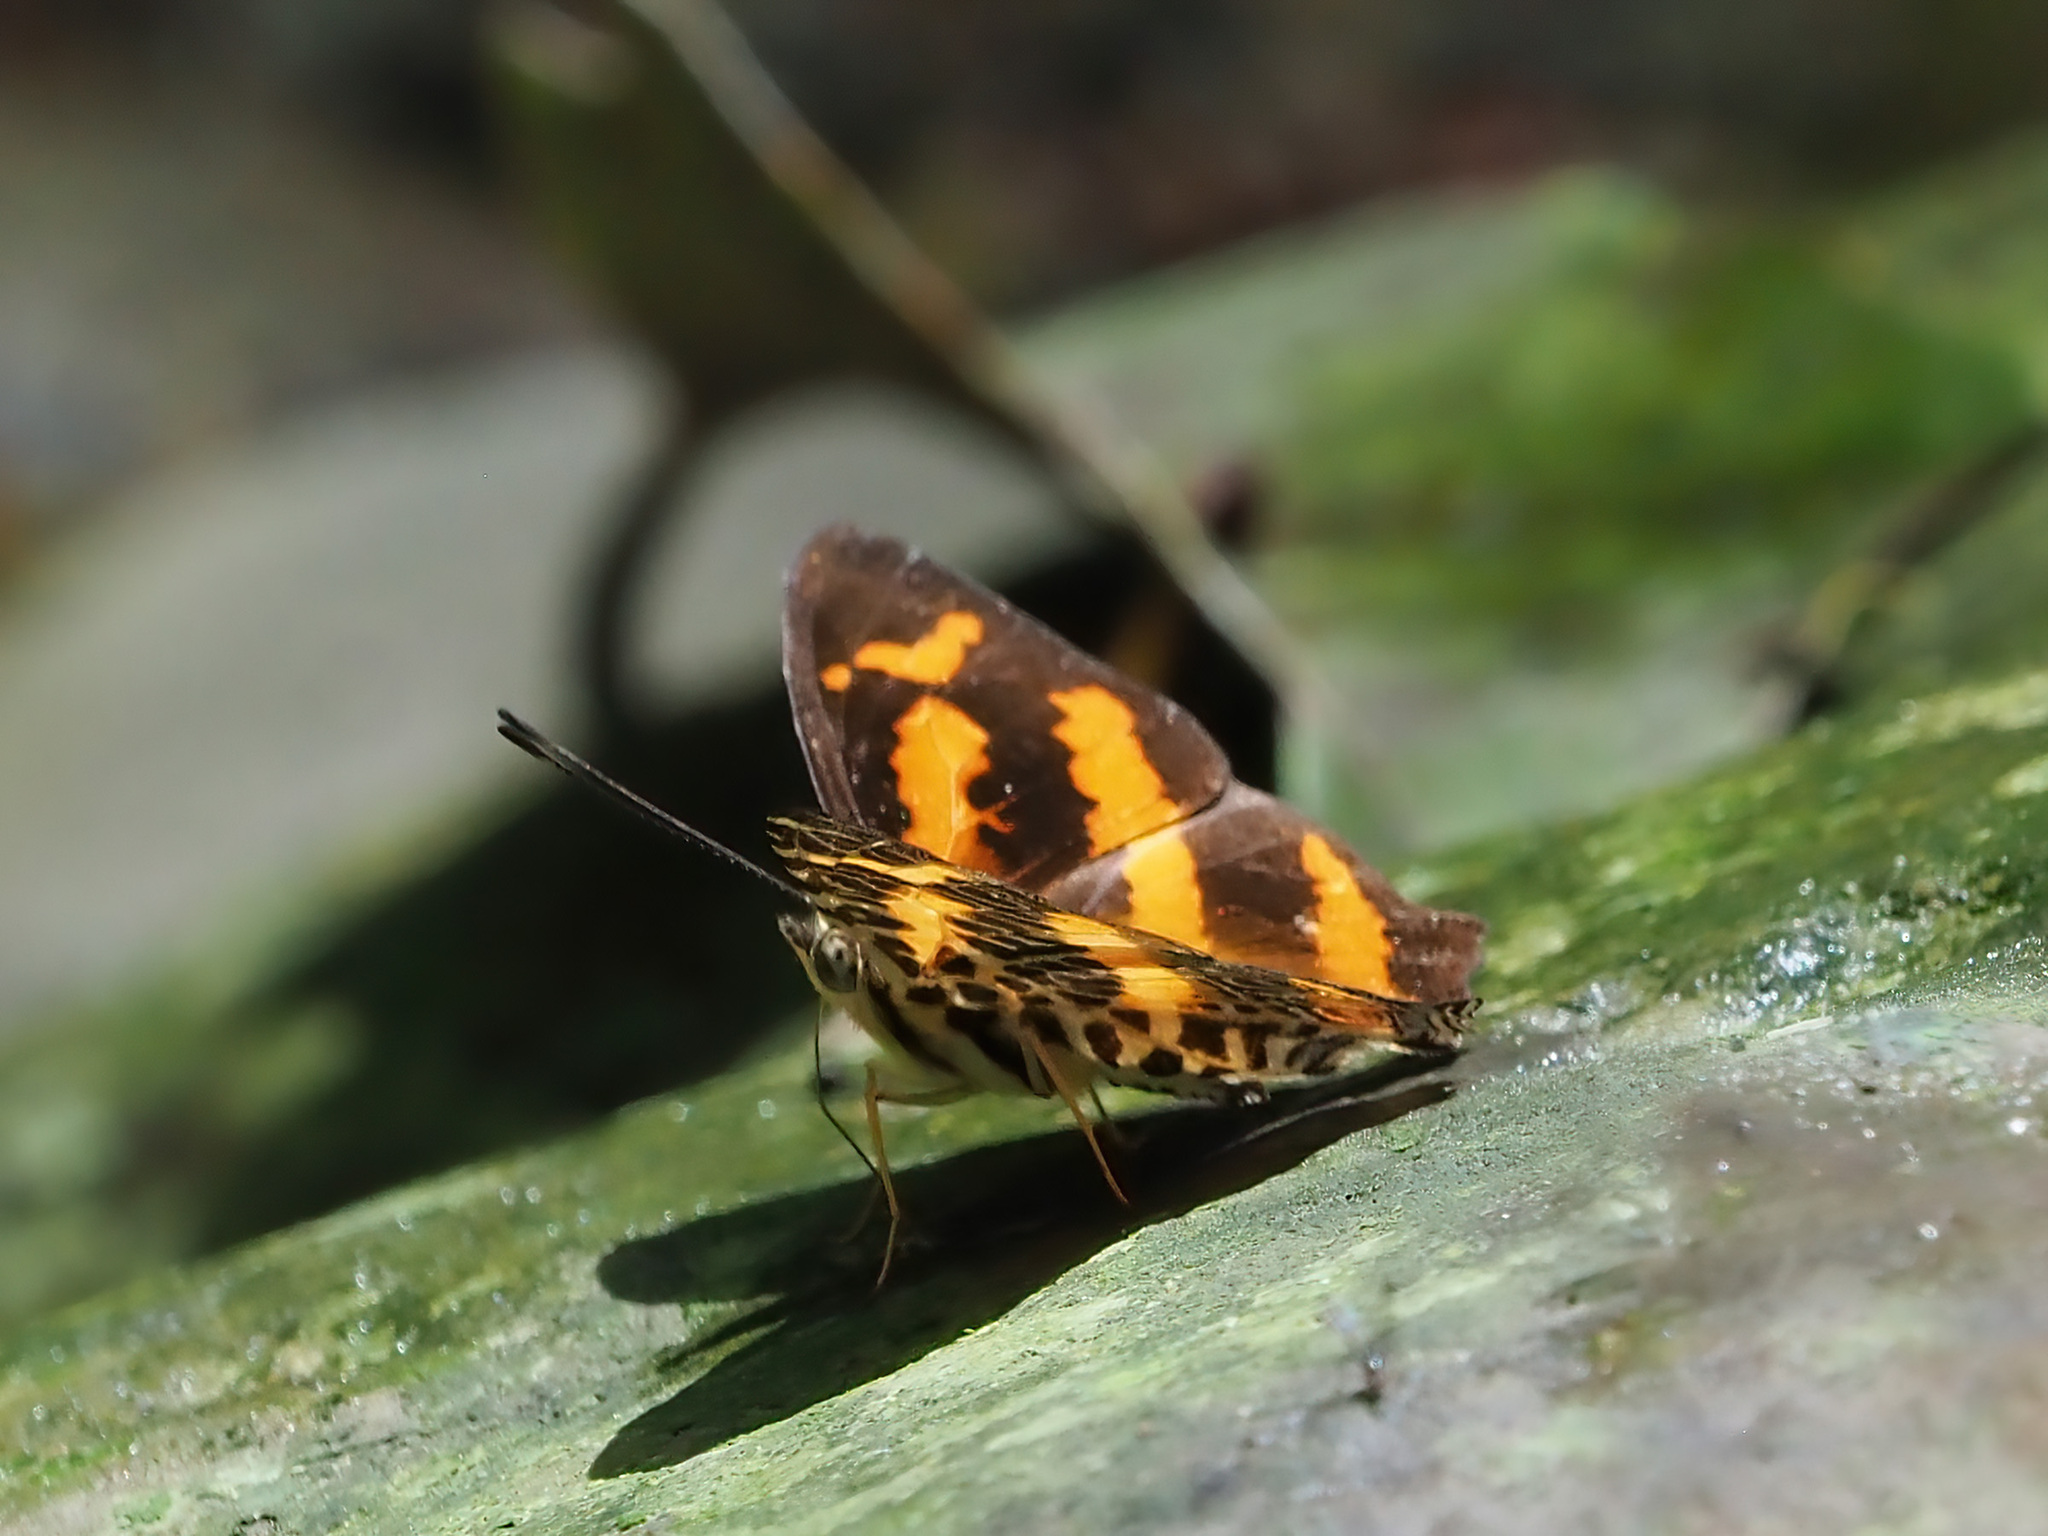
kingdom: Animalia
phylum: Arthropoda
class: Insecta
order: Lepidoptera
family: Nymphalidae
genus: Symbrenthia
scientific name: Symbrenthia hypselis
